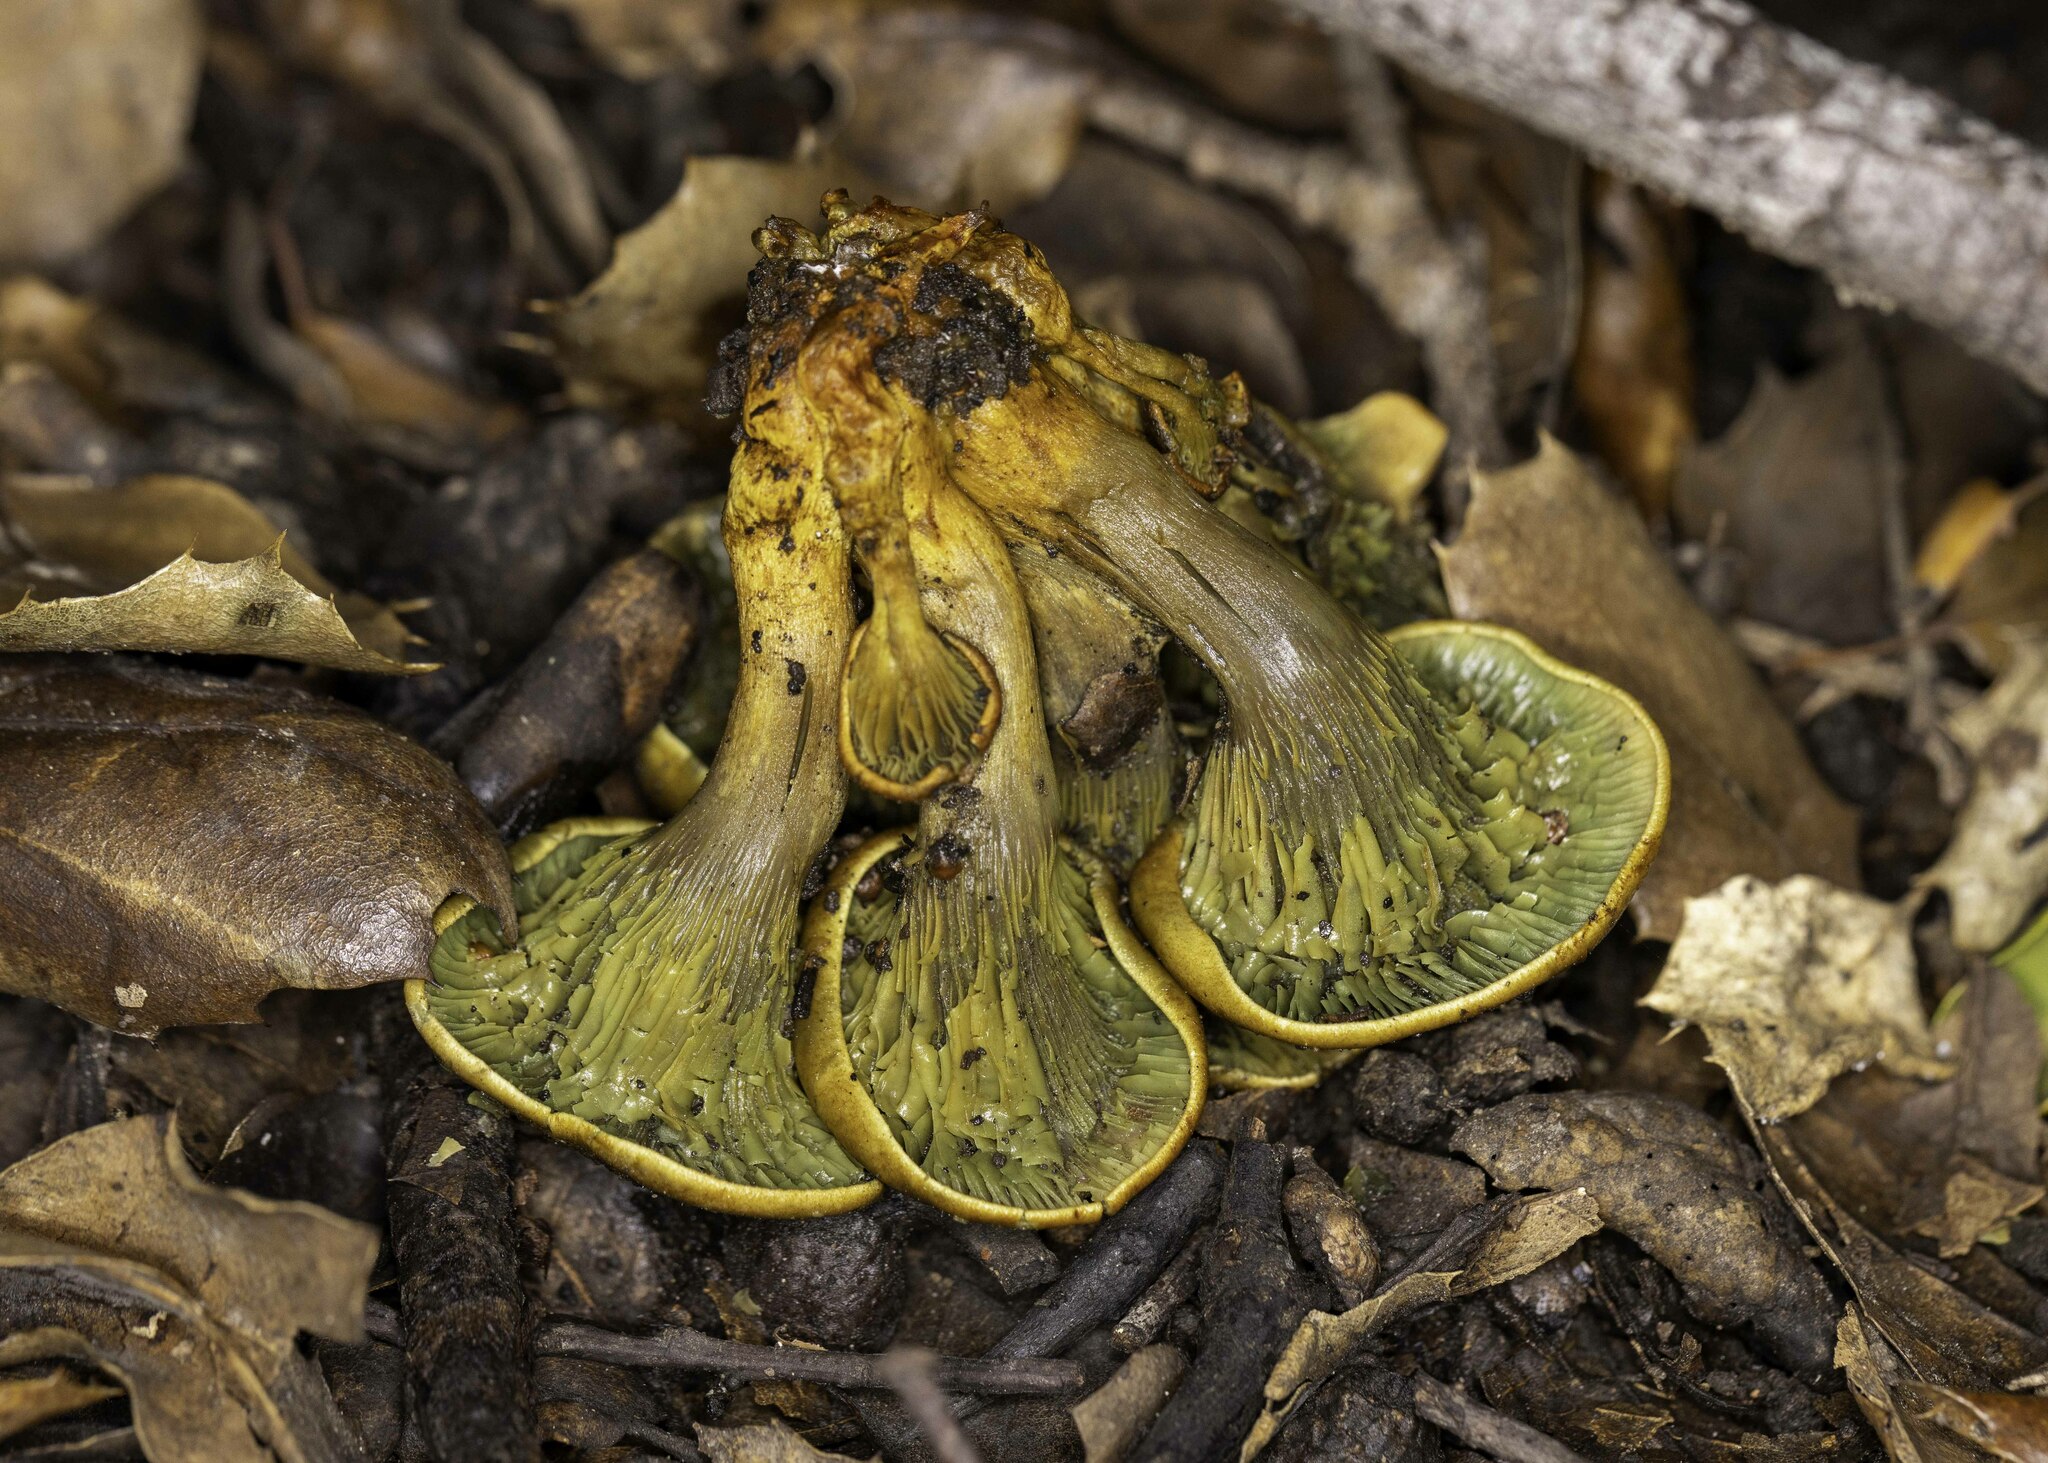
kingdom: Fungi
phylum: Basidiomycota
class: Agaricomycetes
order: Agaricales
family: Omphalotaceae
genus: Omphalotus
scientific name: Omphalotus olivascens
